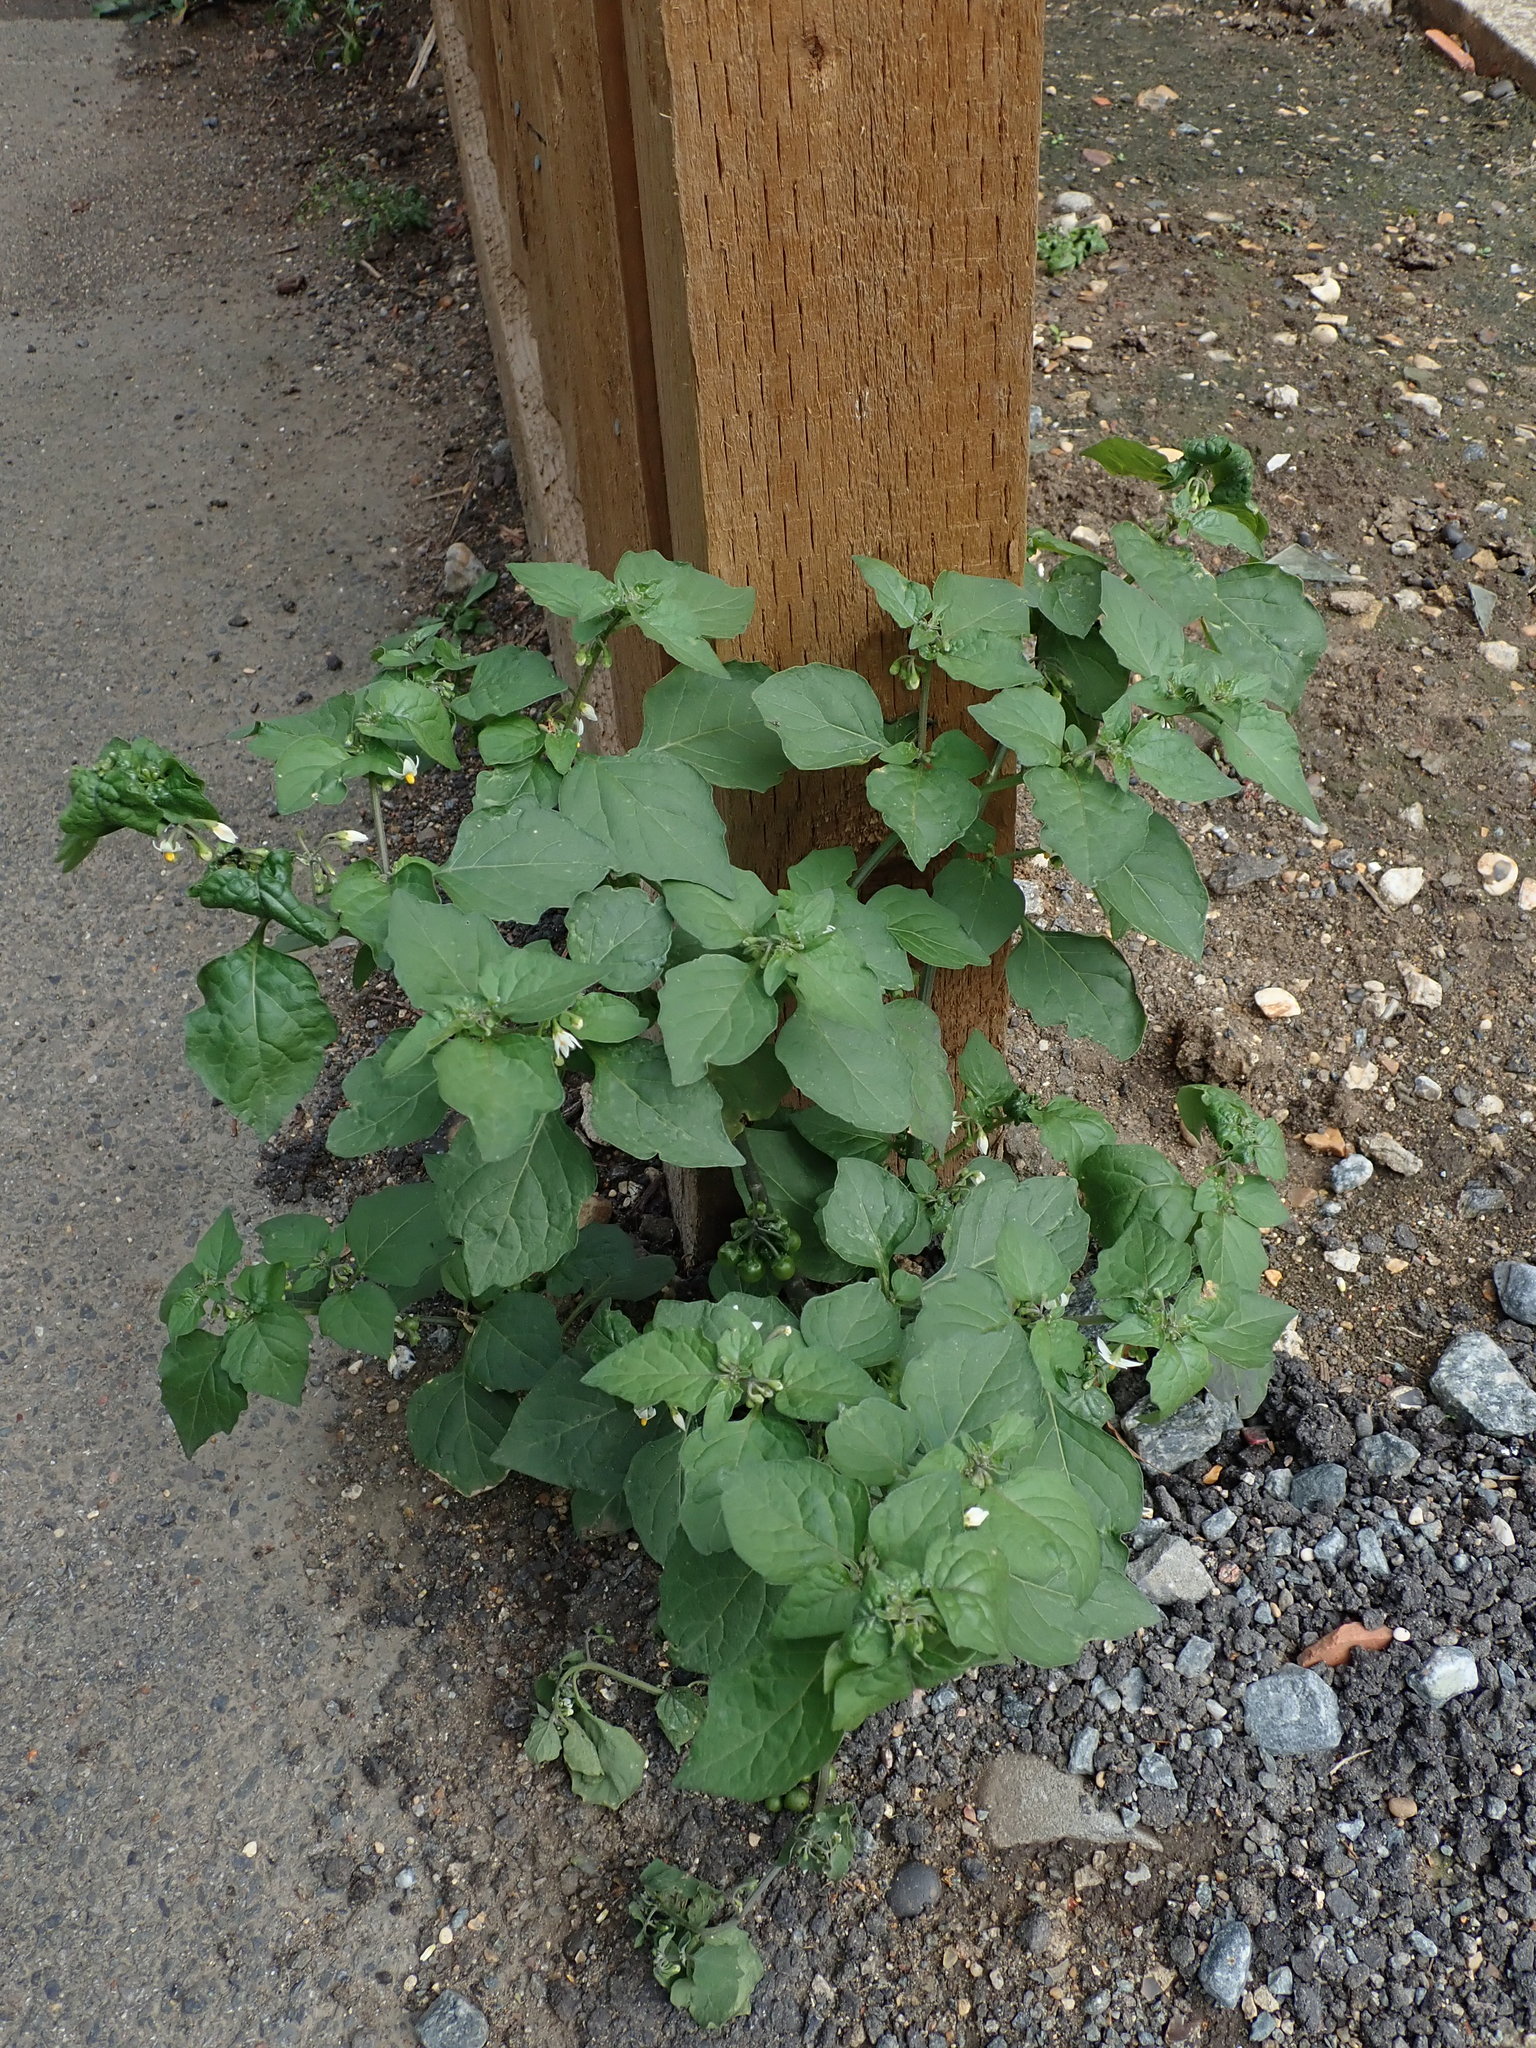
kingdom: Plantae
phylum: Tracheophyta
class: Magnoliopsida
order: Solanales
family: Solanaceae
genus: Solanum
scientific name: Solanum nigrum
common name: Black nightshade
